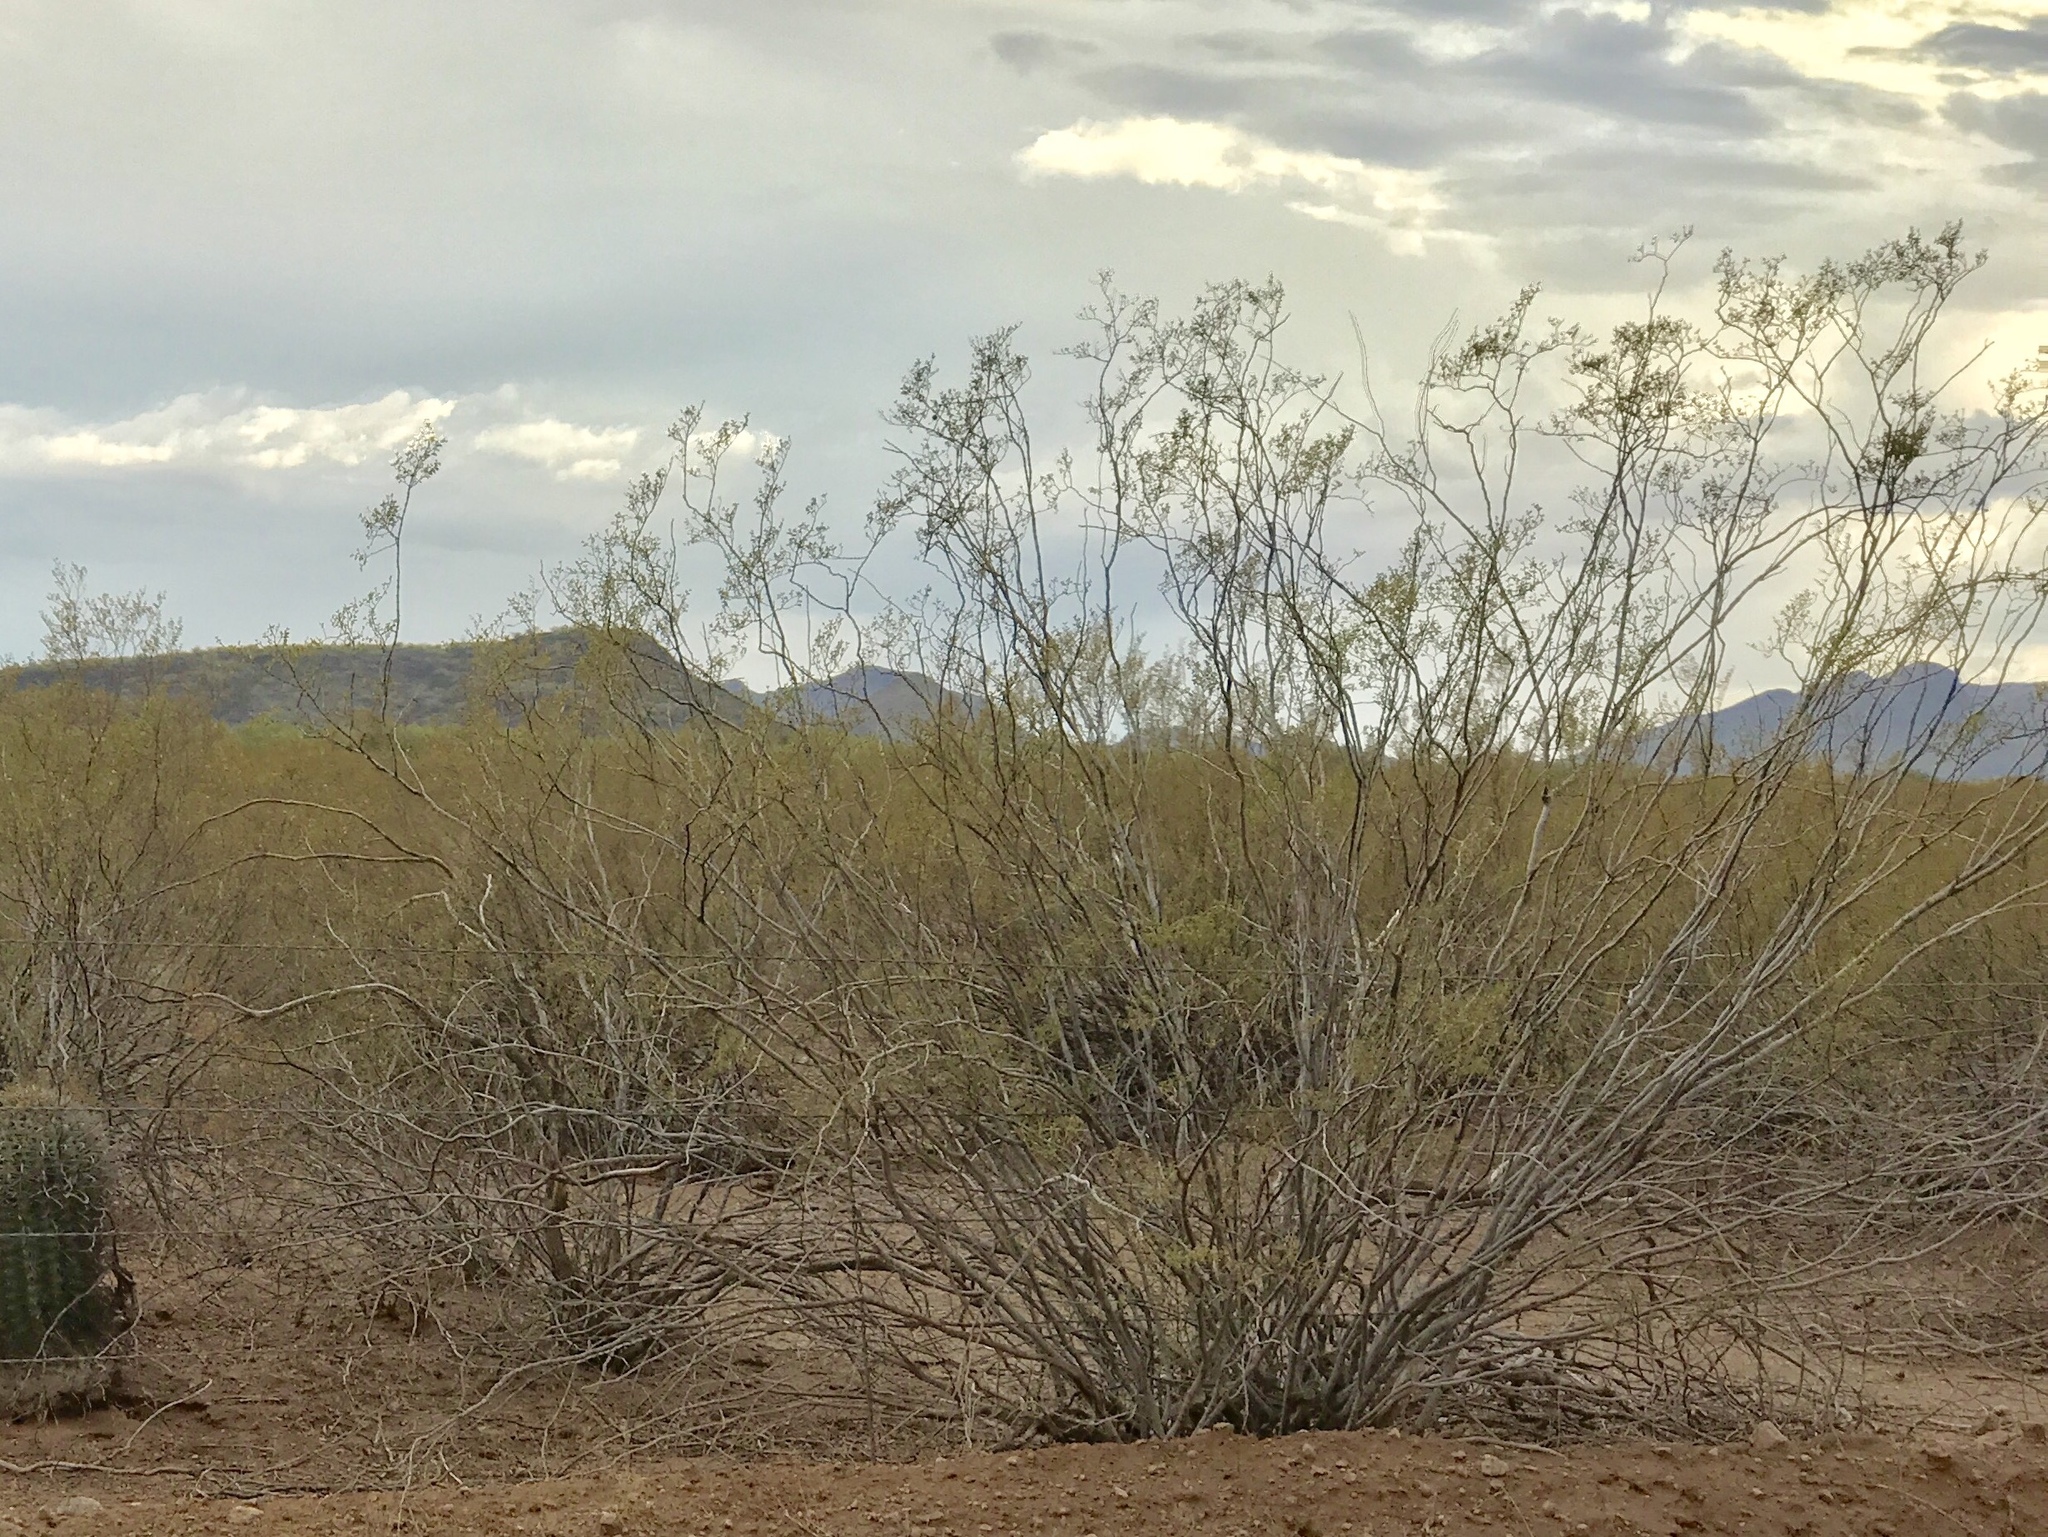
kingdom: Plantae
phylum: Tracheophyta
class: Magnoliopsida
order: Zygophyllales
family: Zygophyllaceae
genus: Larrea
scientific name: Larrea tridentata
